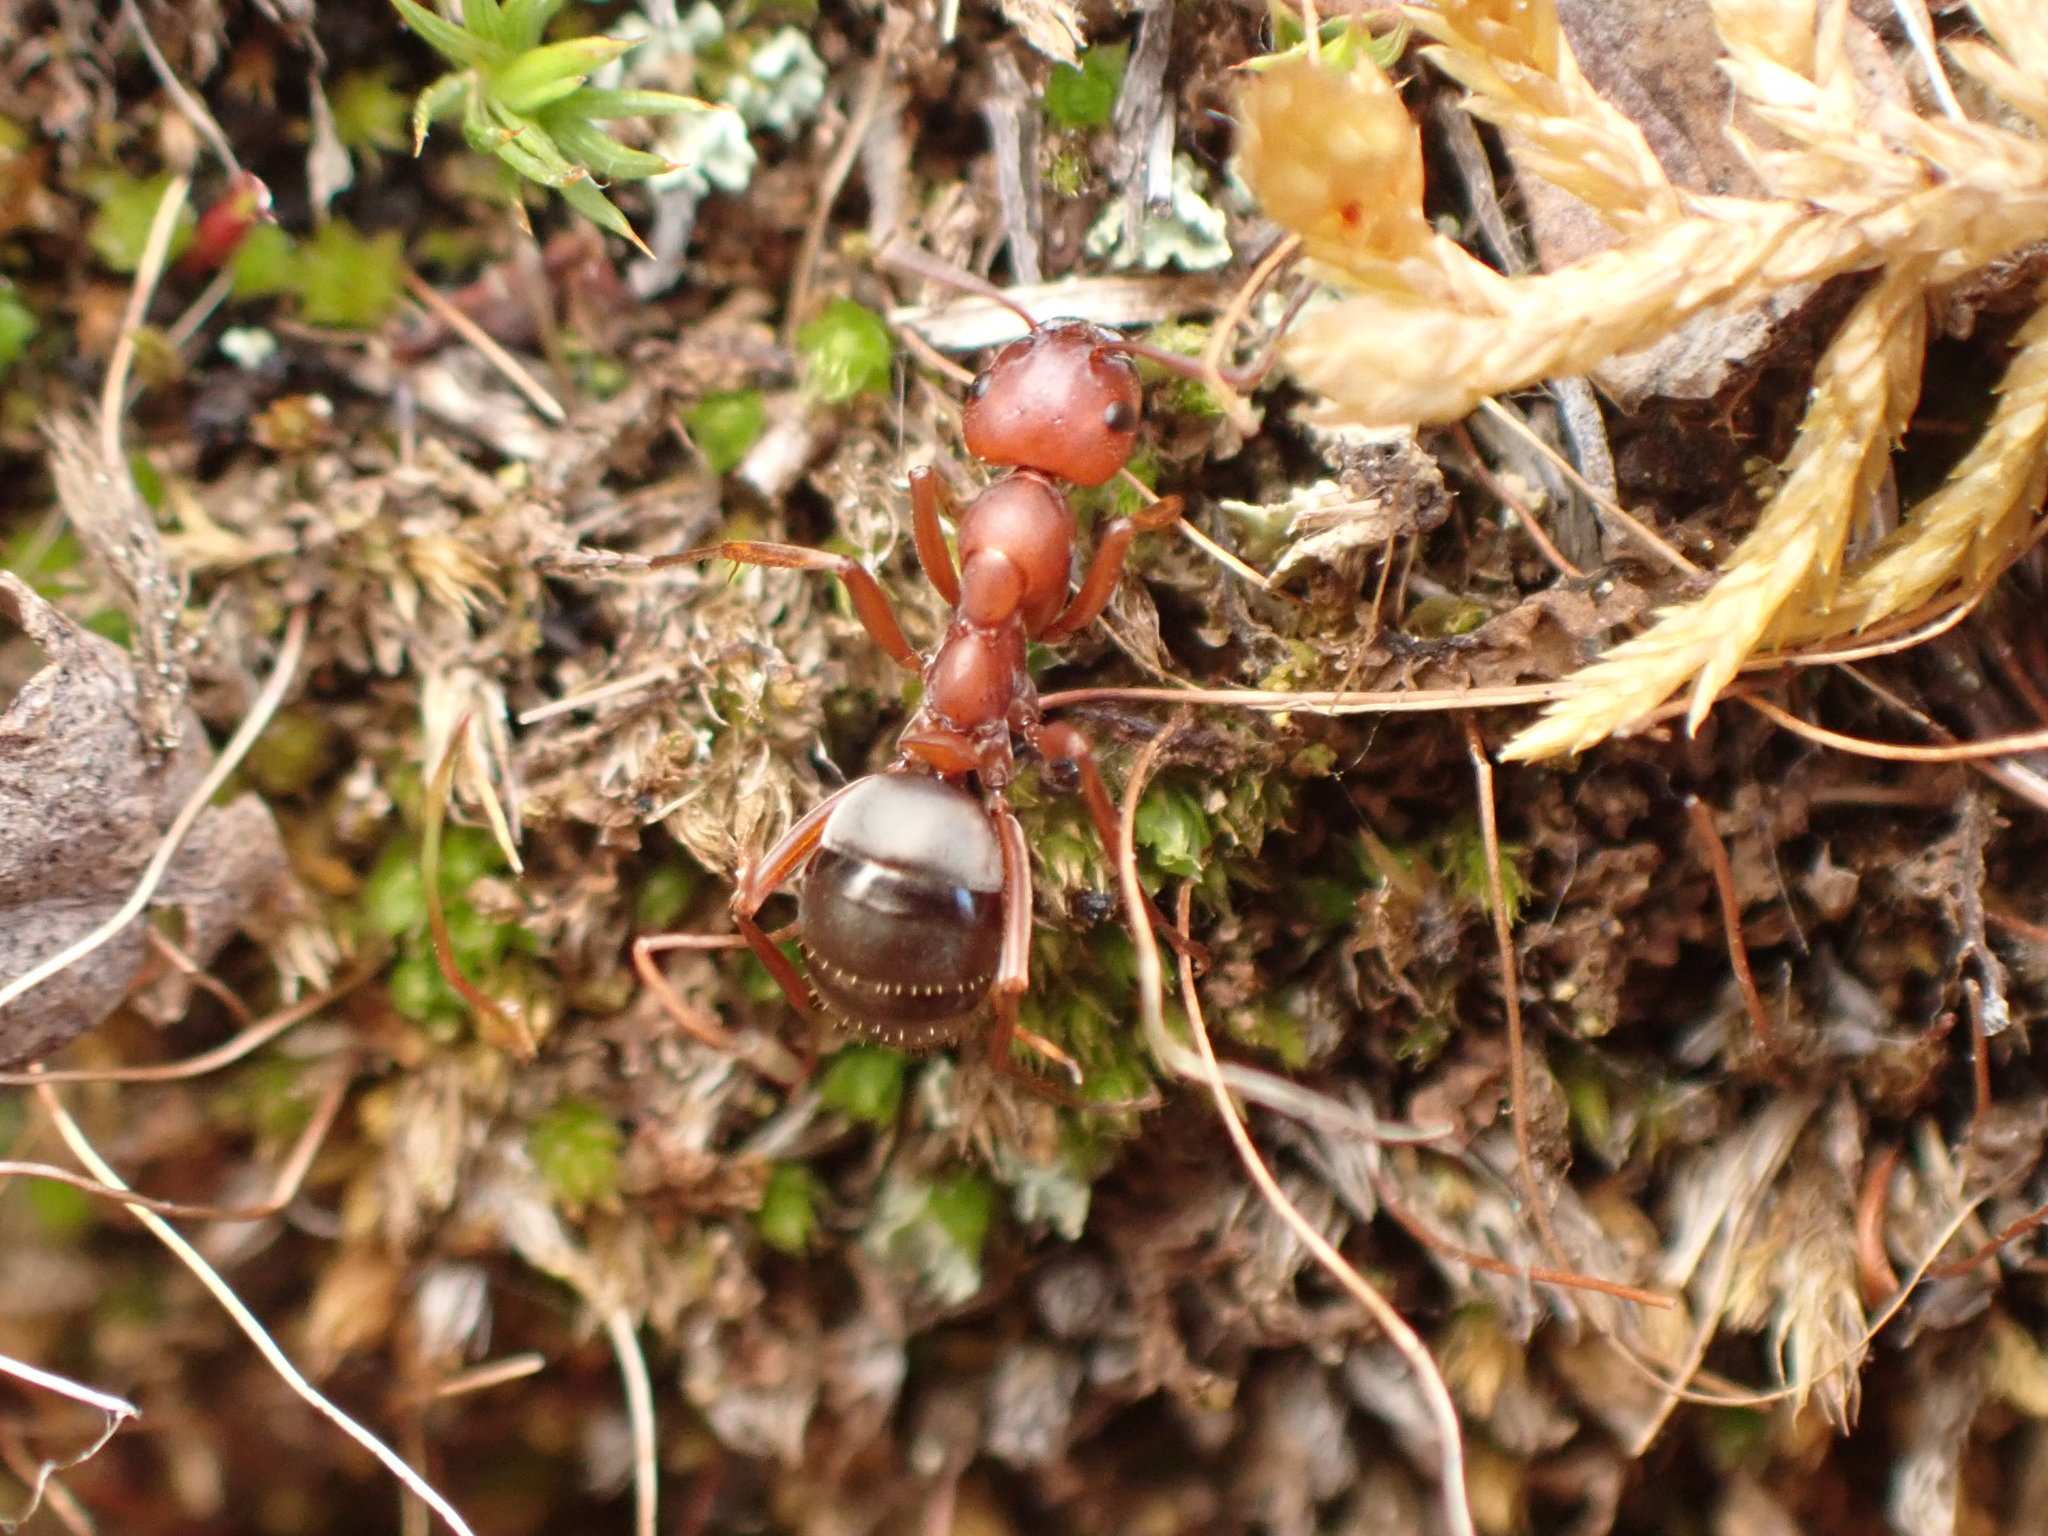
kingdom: Animalia
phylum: Arthropoda
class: Insecta
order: Hymenoptera
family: Formicidae
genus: Formica
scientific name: Formica aserva
